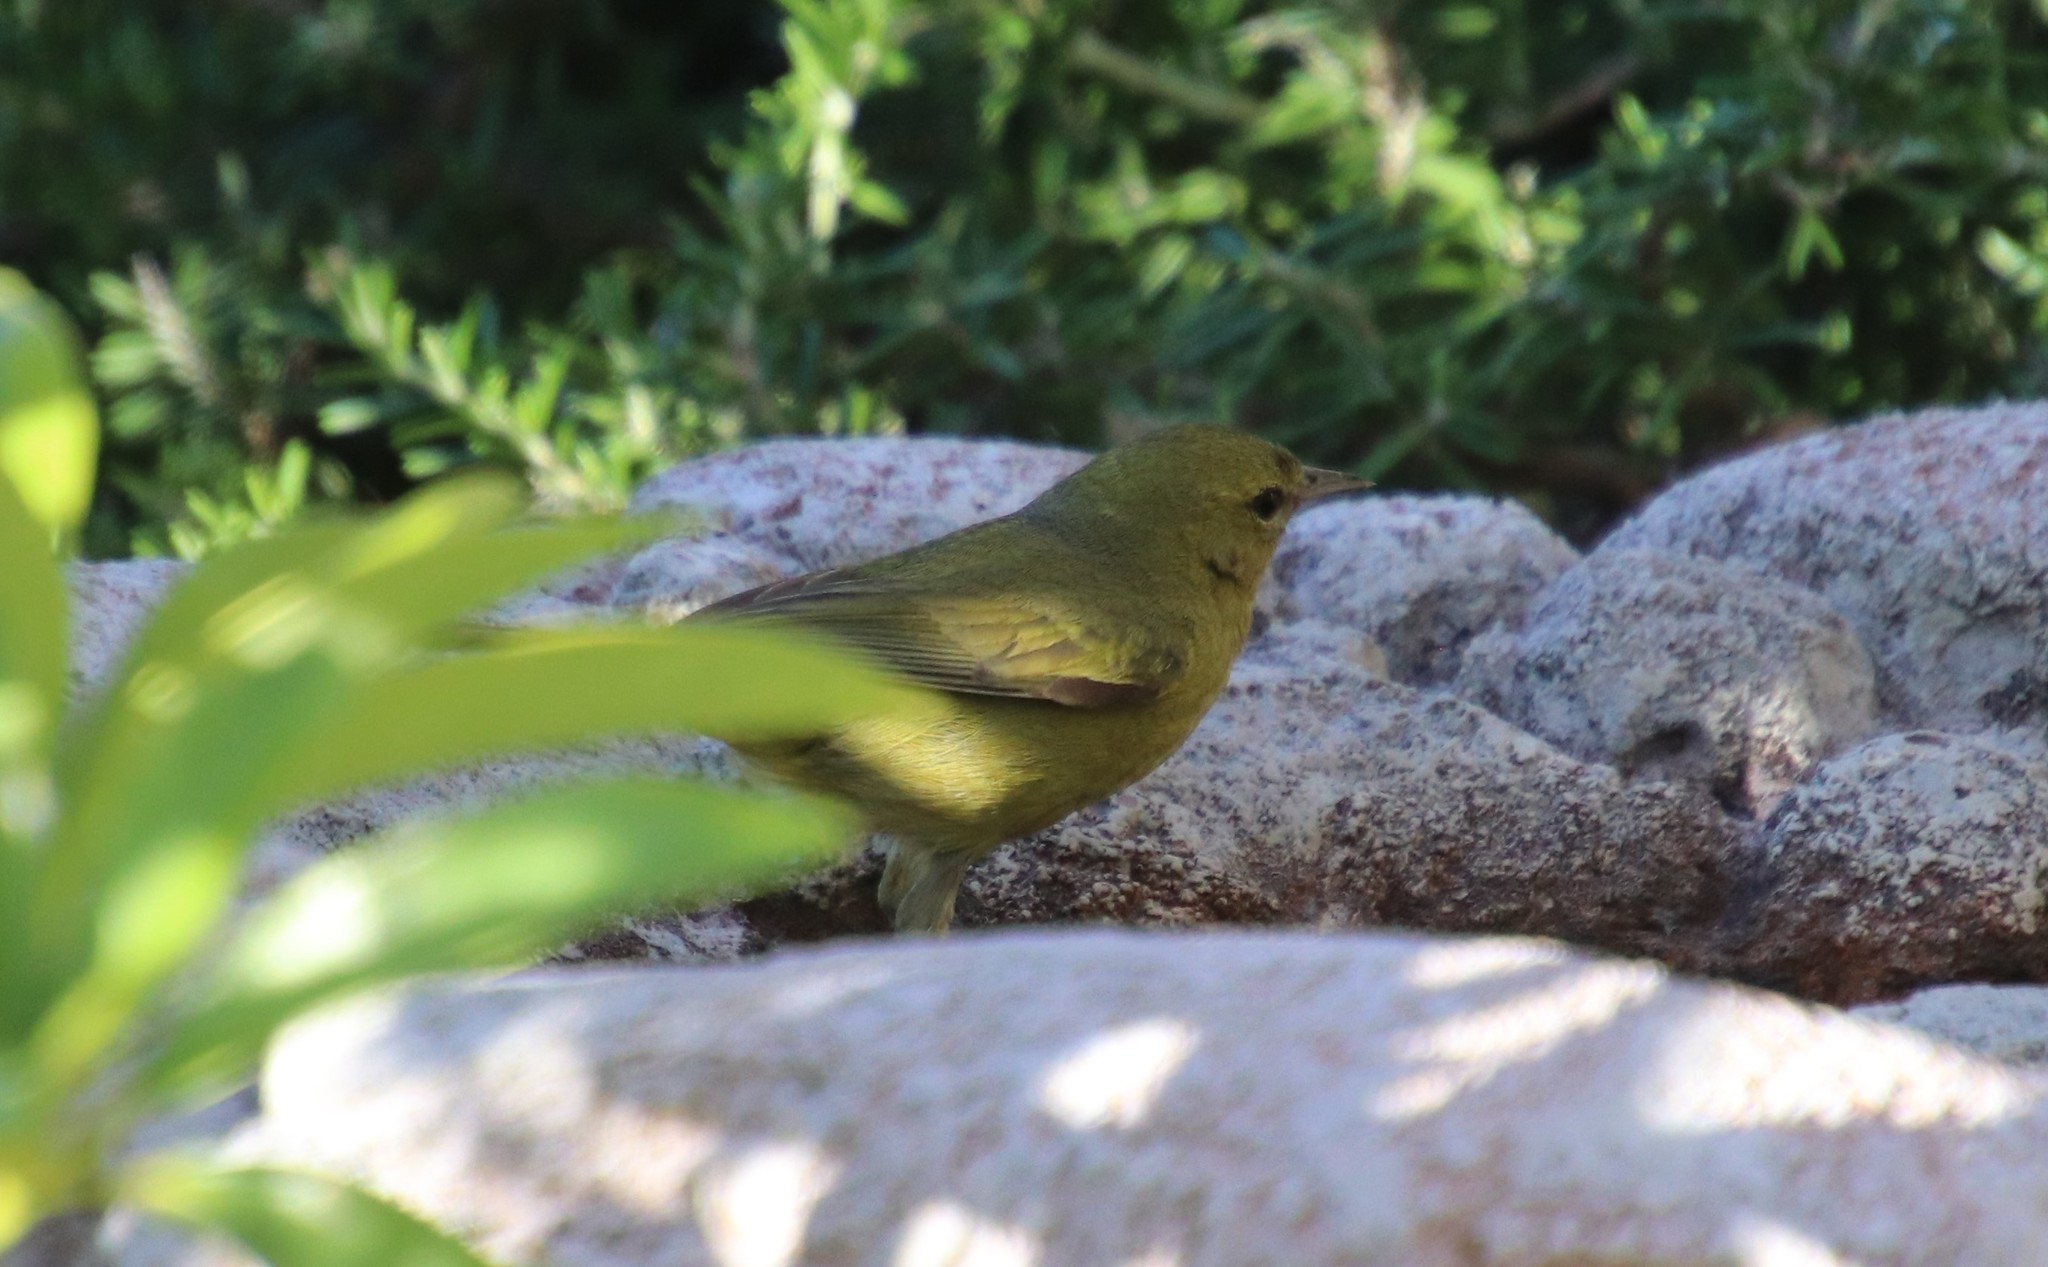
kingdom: Animalia
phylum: Chordata
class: Aves
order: Passeriformes
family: Parulidae
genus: Leiothlypis
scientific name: Leiothlypis celata
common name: Orange-crowned warbler
